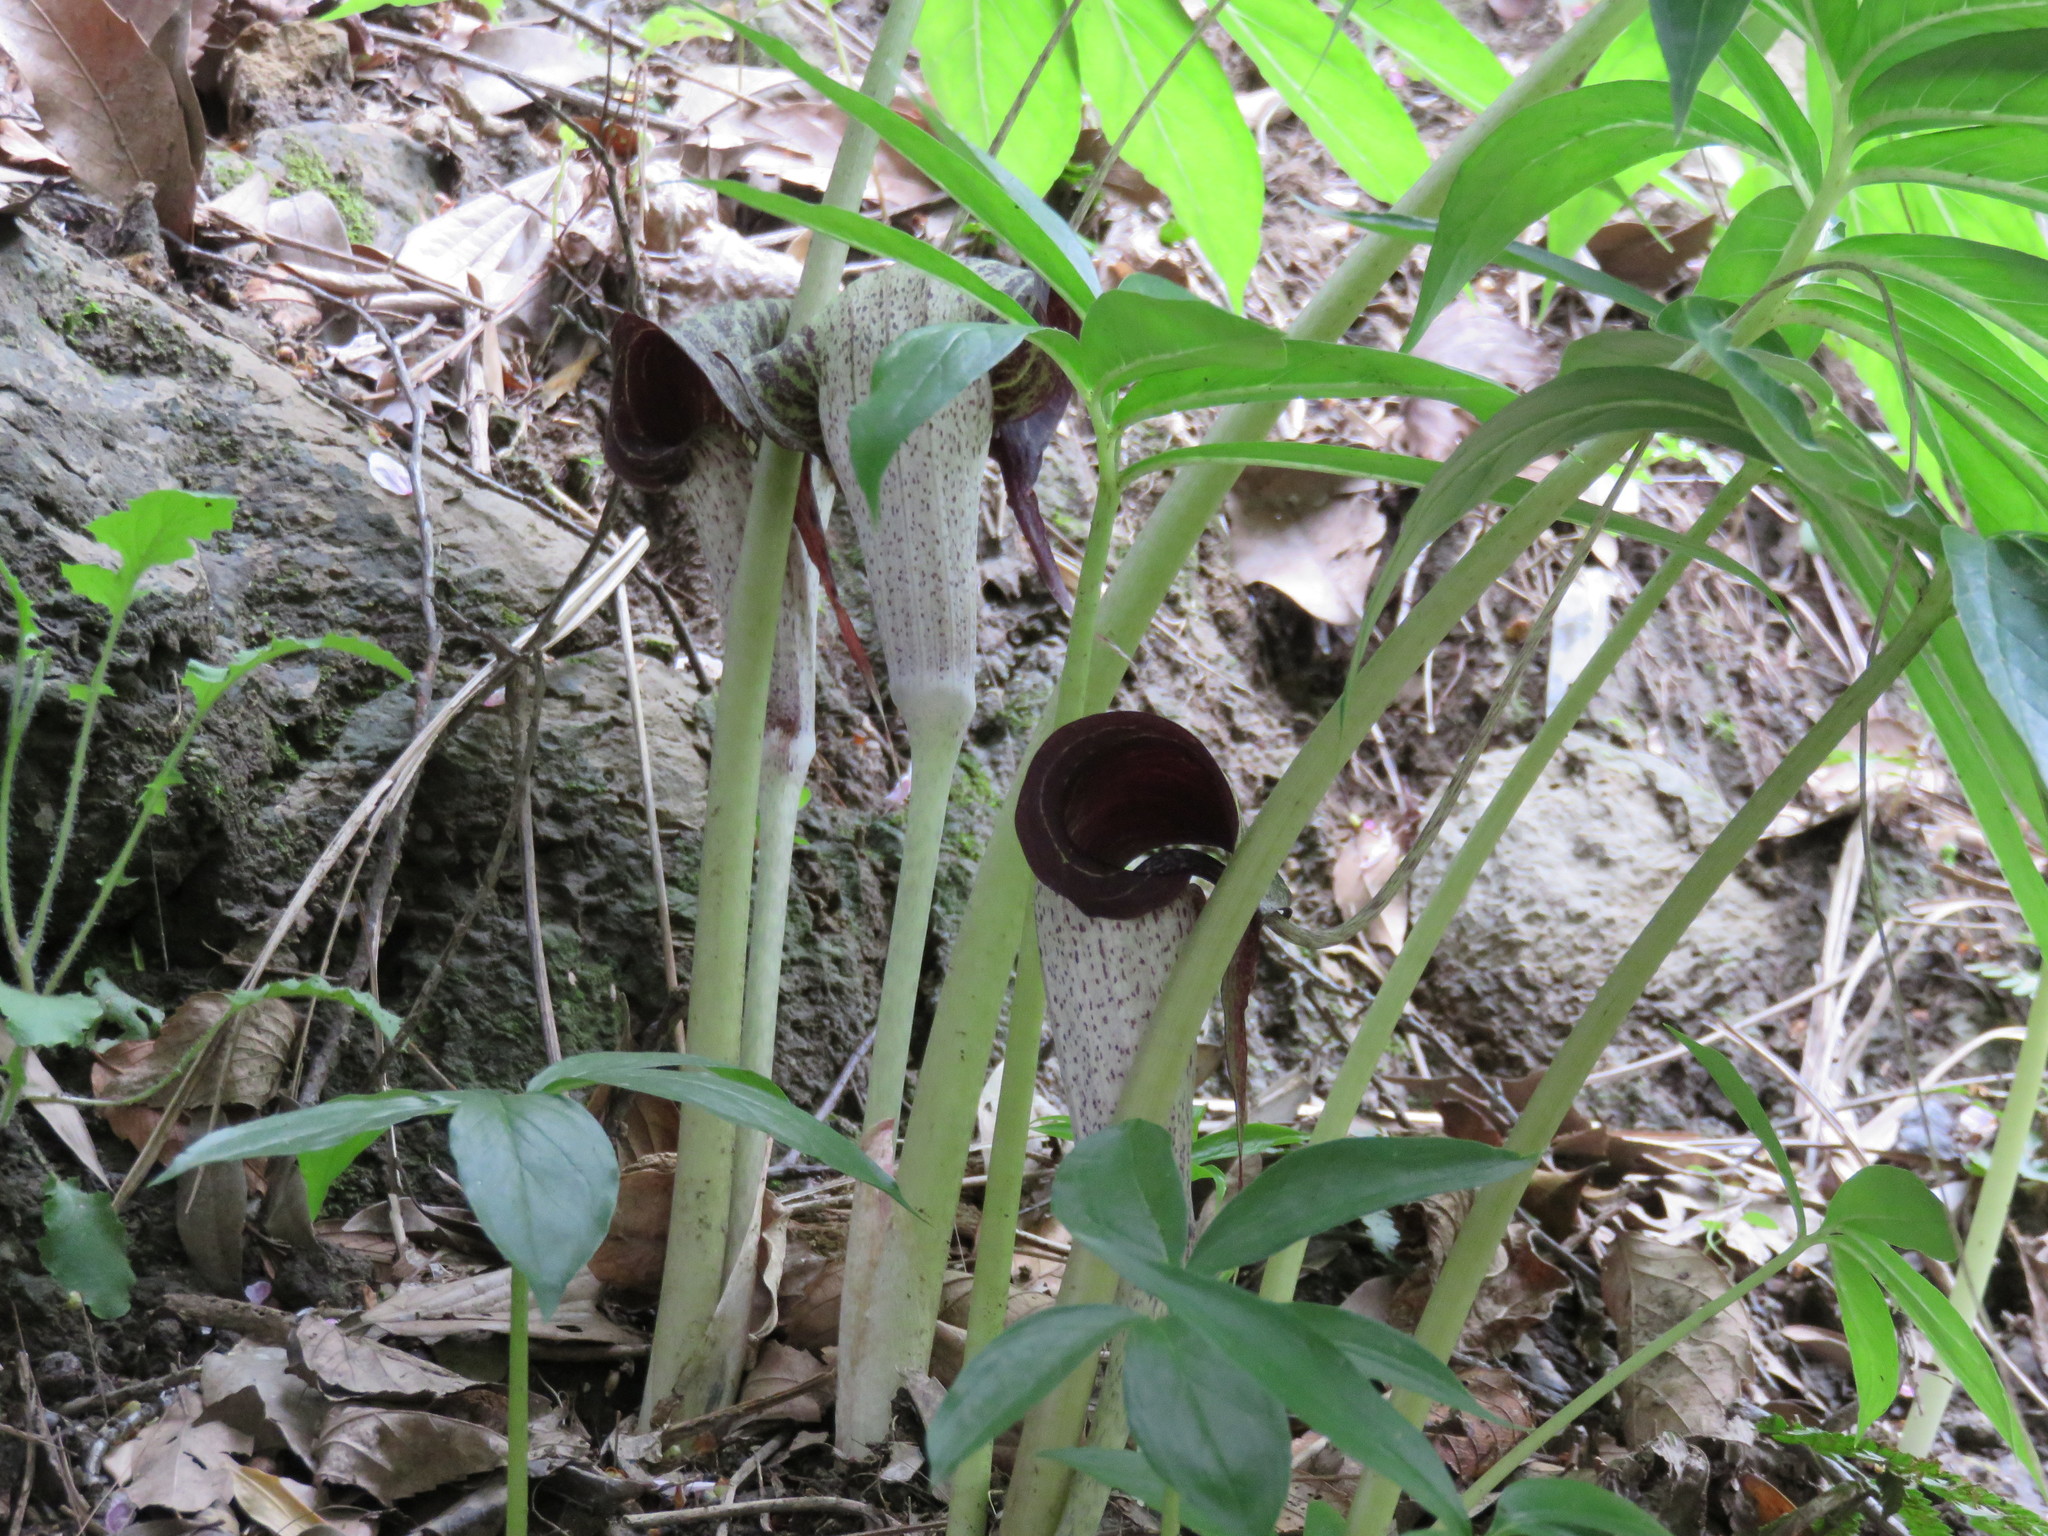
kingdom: Plantae
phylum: Tracheophyta
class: Liliopsida
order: Alismatales
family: Araceae
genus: Arisaema
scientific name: Arisaema thunbergii
